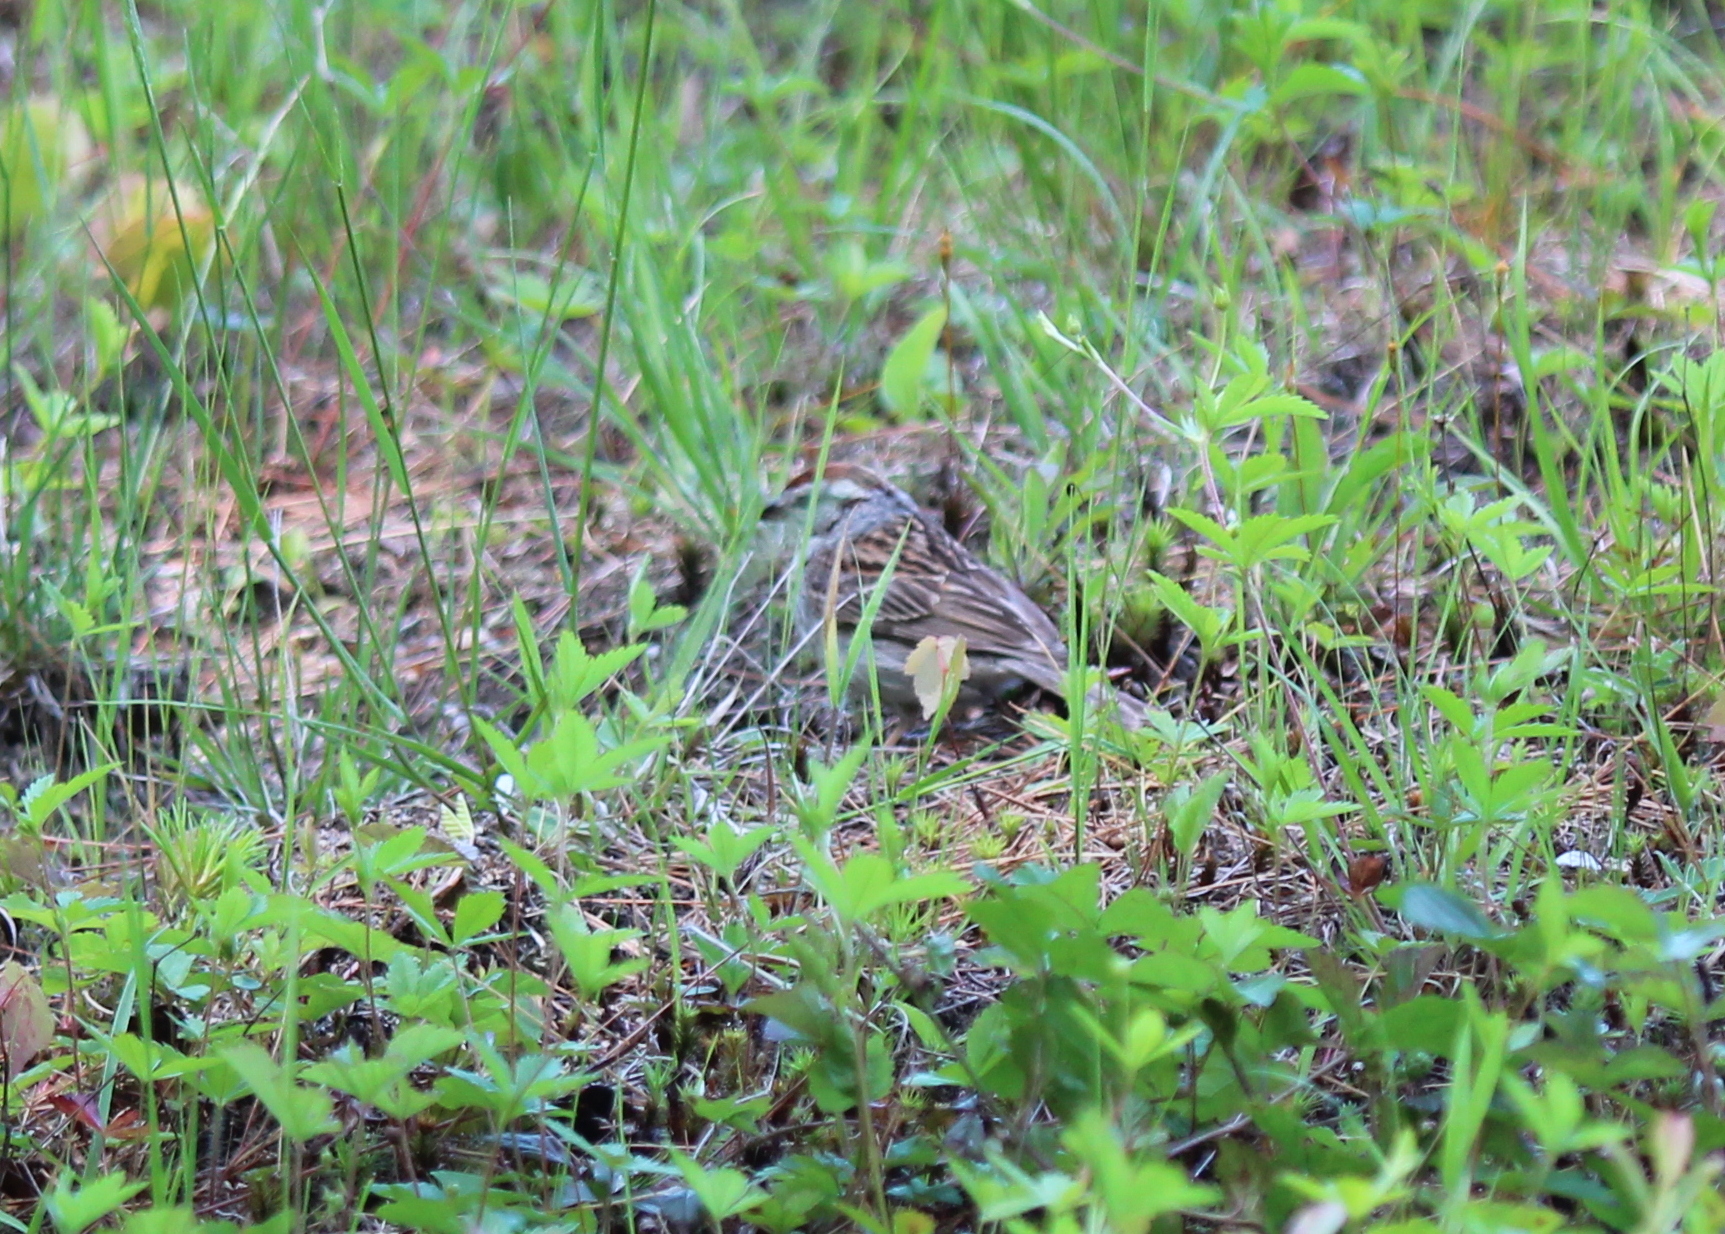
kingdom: Animalia
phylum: Chordata
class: Aves
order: Passeriformes
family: Passerellidae
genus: Spizella
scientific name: Spizella passerina
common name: Chipping sparrow
